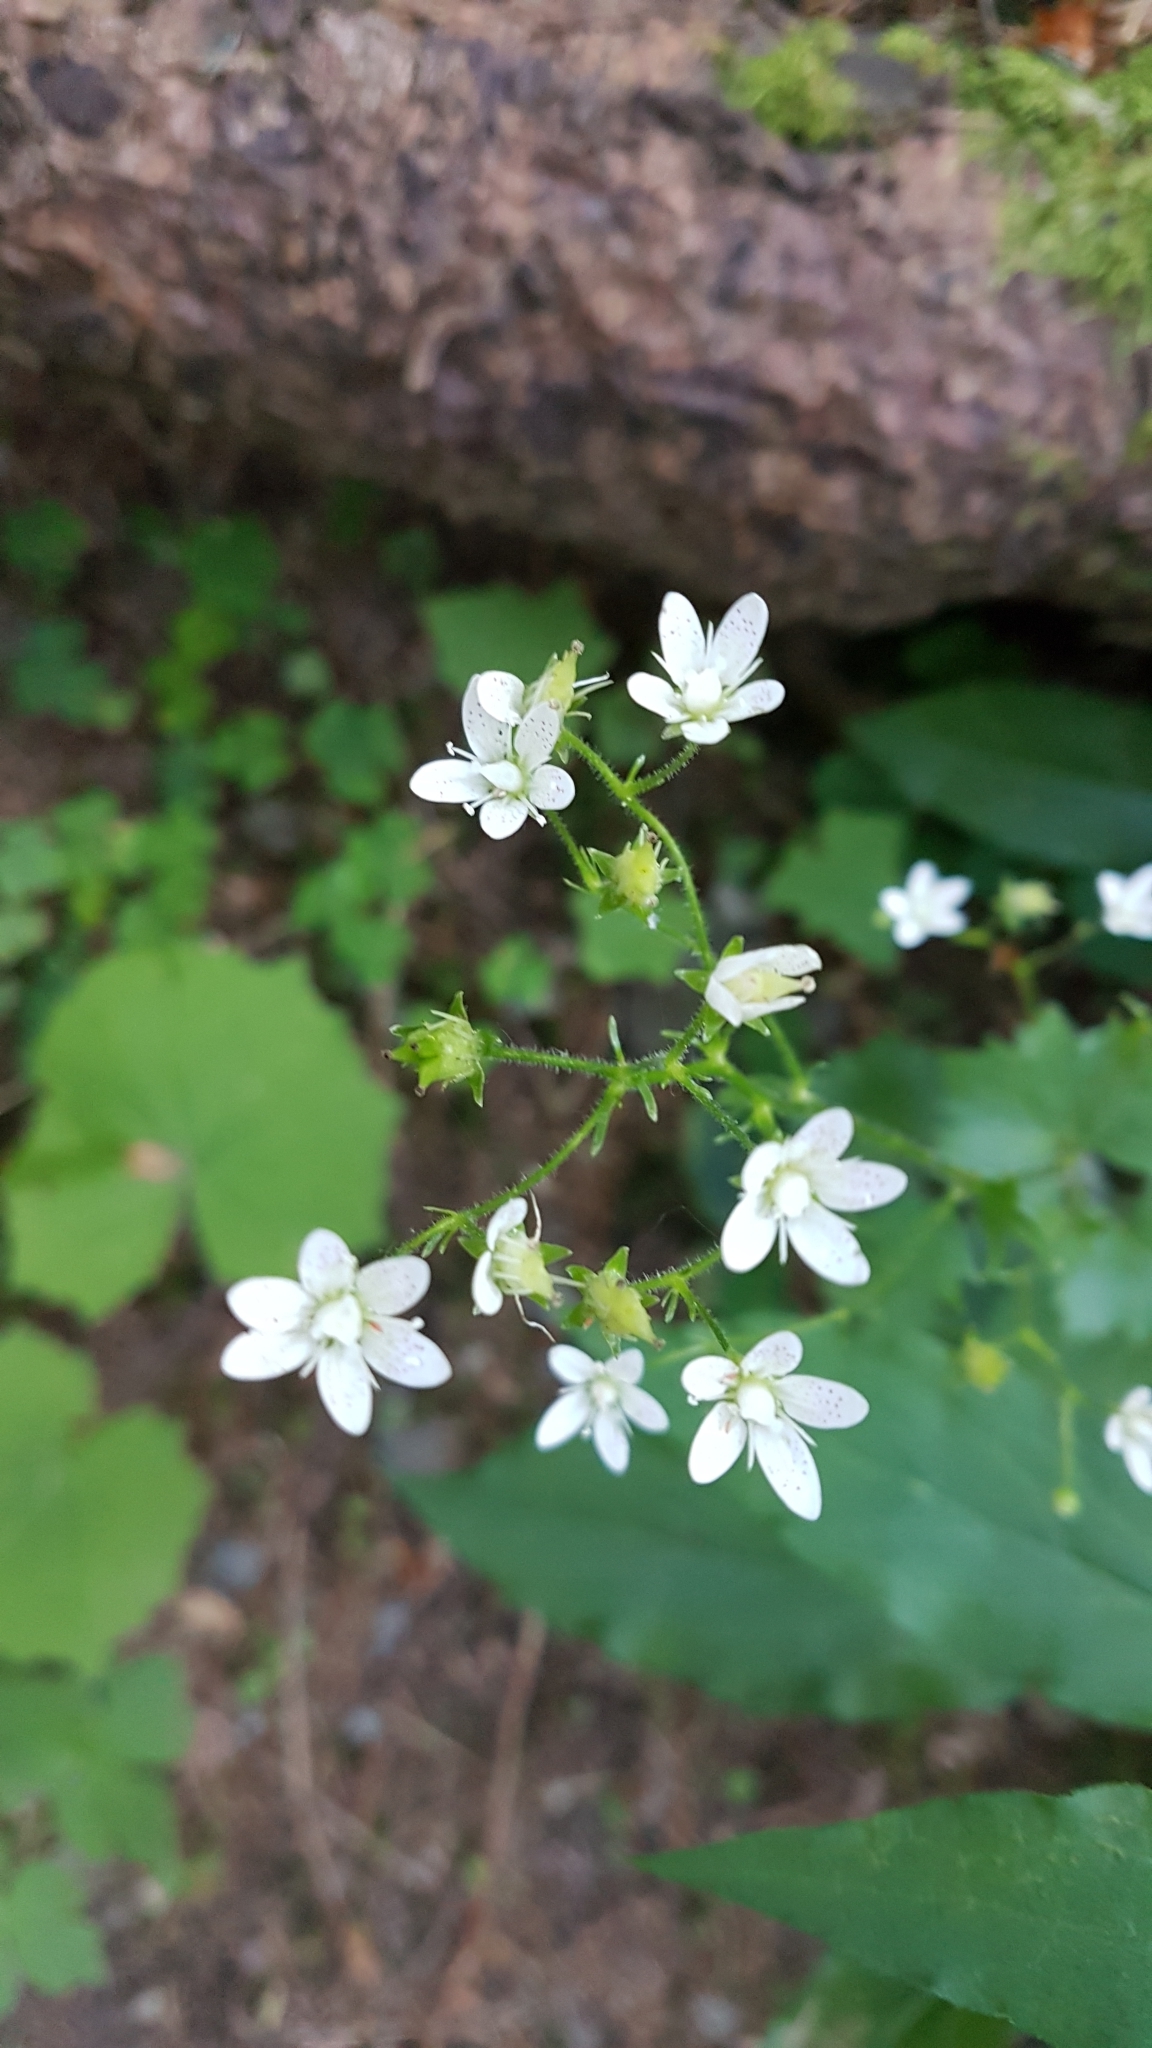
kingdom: Plantae
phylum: Tracheophyta
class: Magnoliopsida
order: Saxifragales
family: Saxifragaceae
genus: Saxifraga
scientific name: Saxifraga rotundifolia
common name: Round-leaved saxifrage
